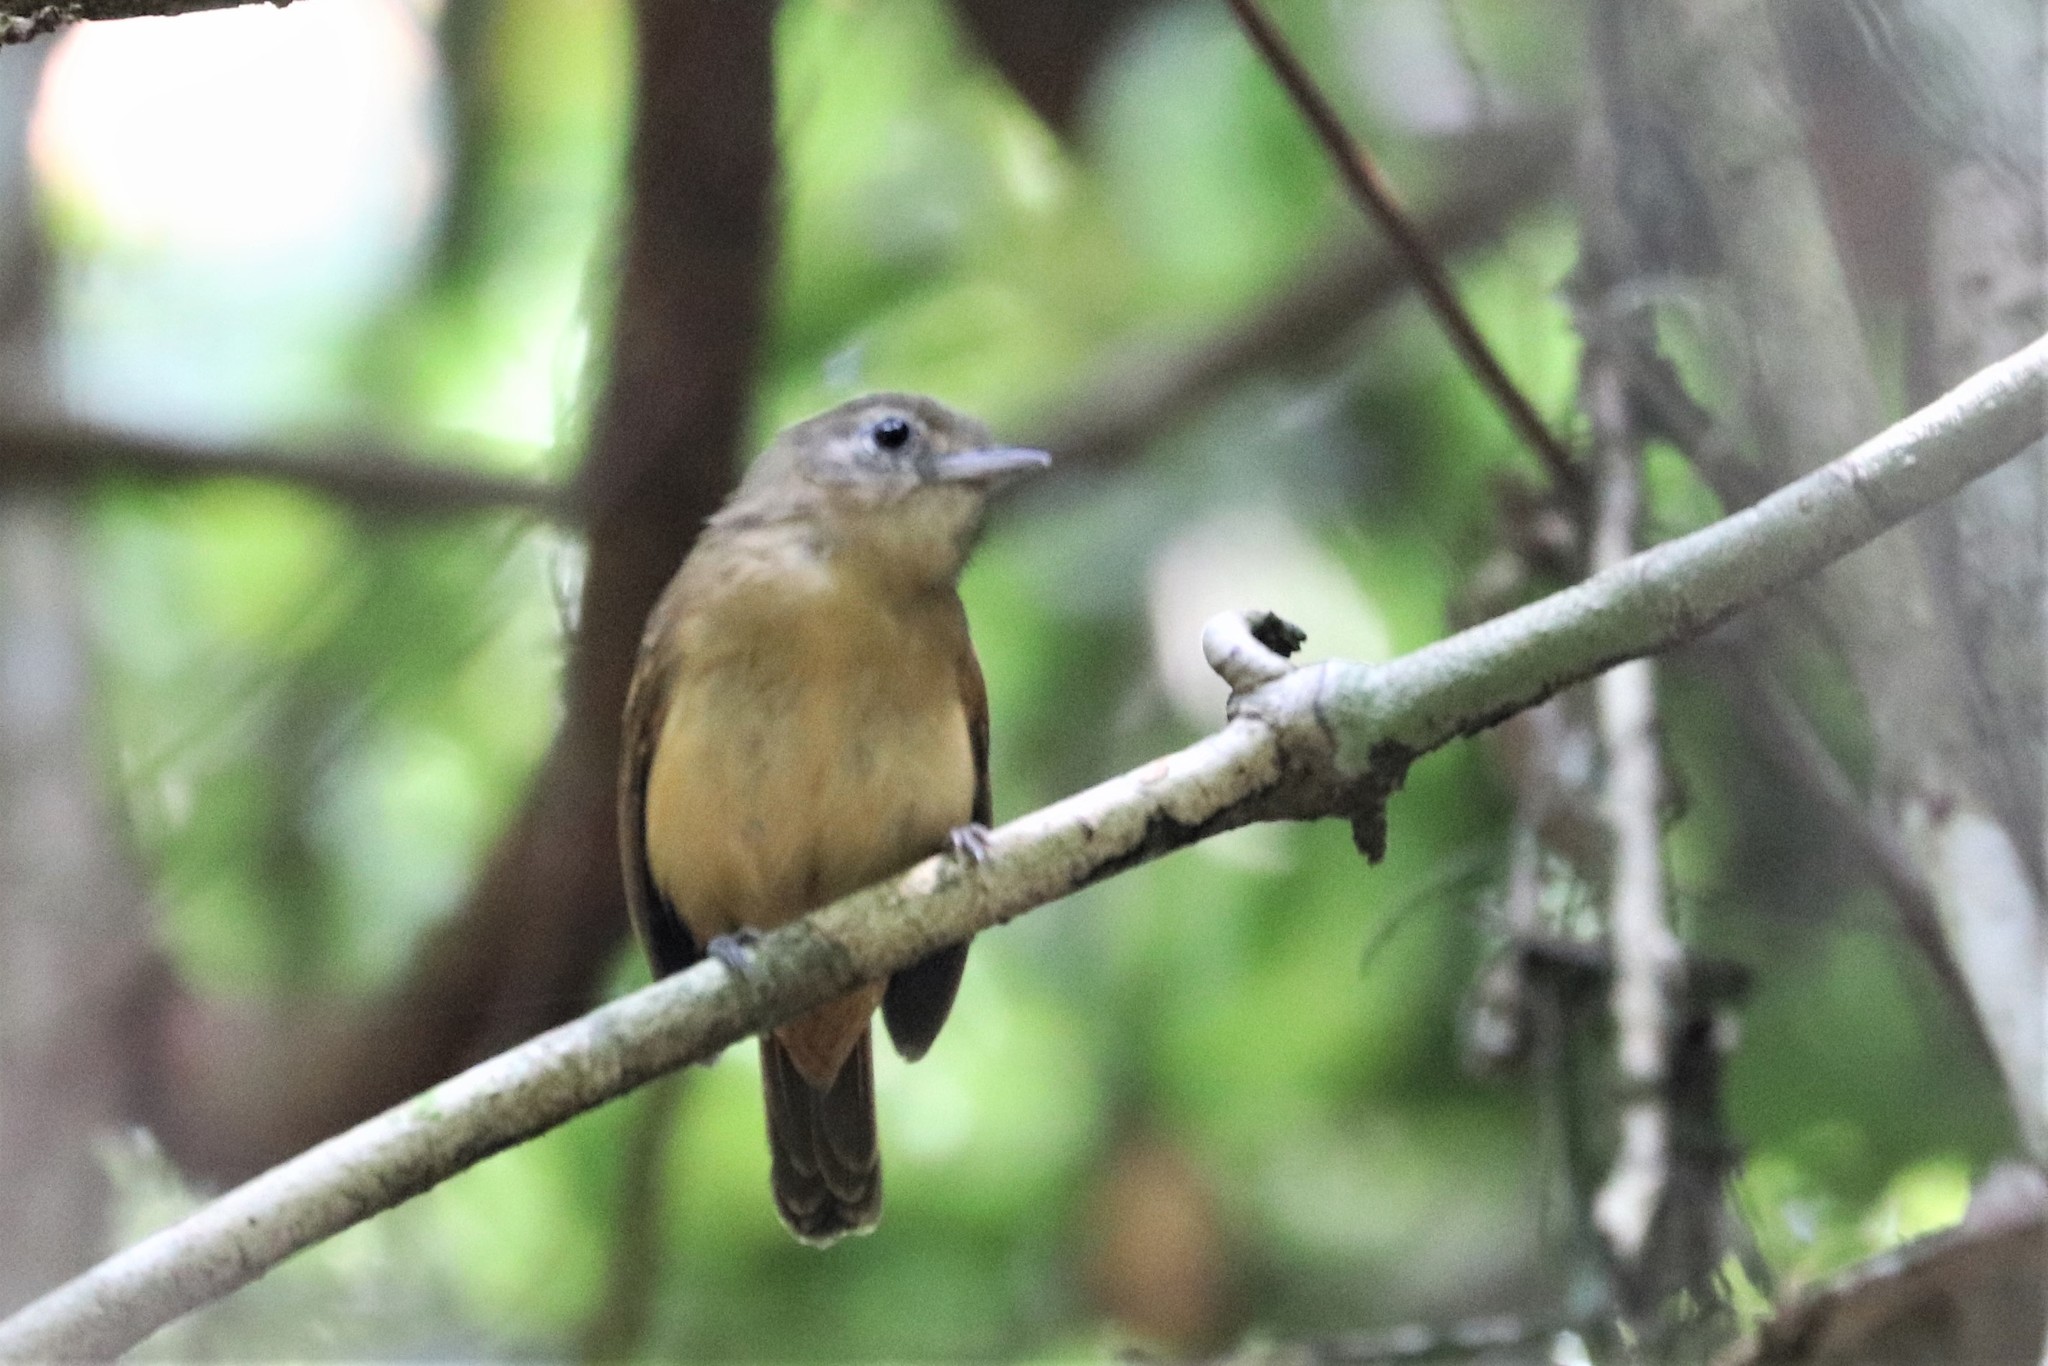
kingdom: Animalia
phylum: Chordata
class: Aves
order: Passeriformes
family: Thamnophilidae
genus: Myrmotherula
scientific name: Myrmotherula axillaris
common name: White-flanked antwren
